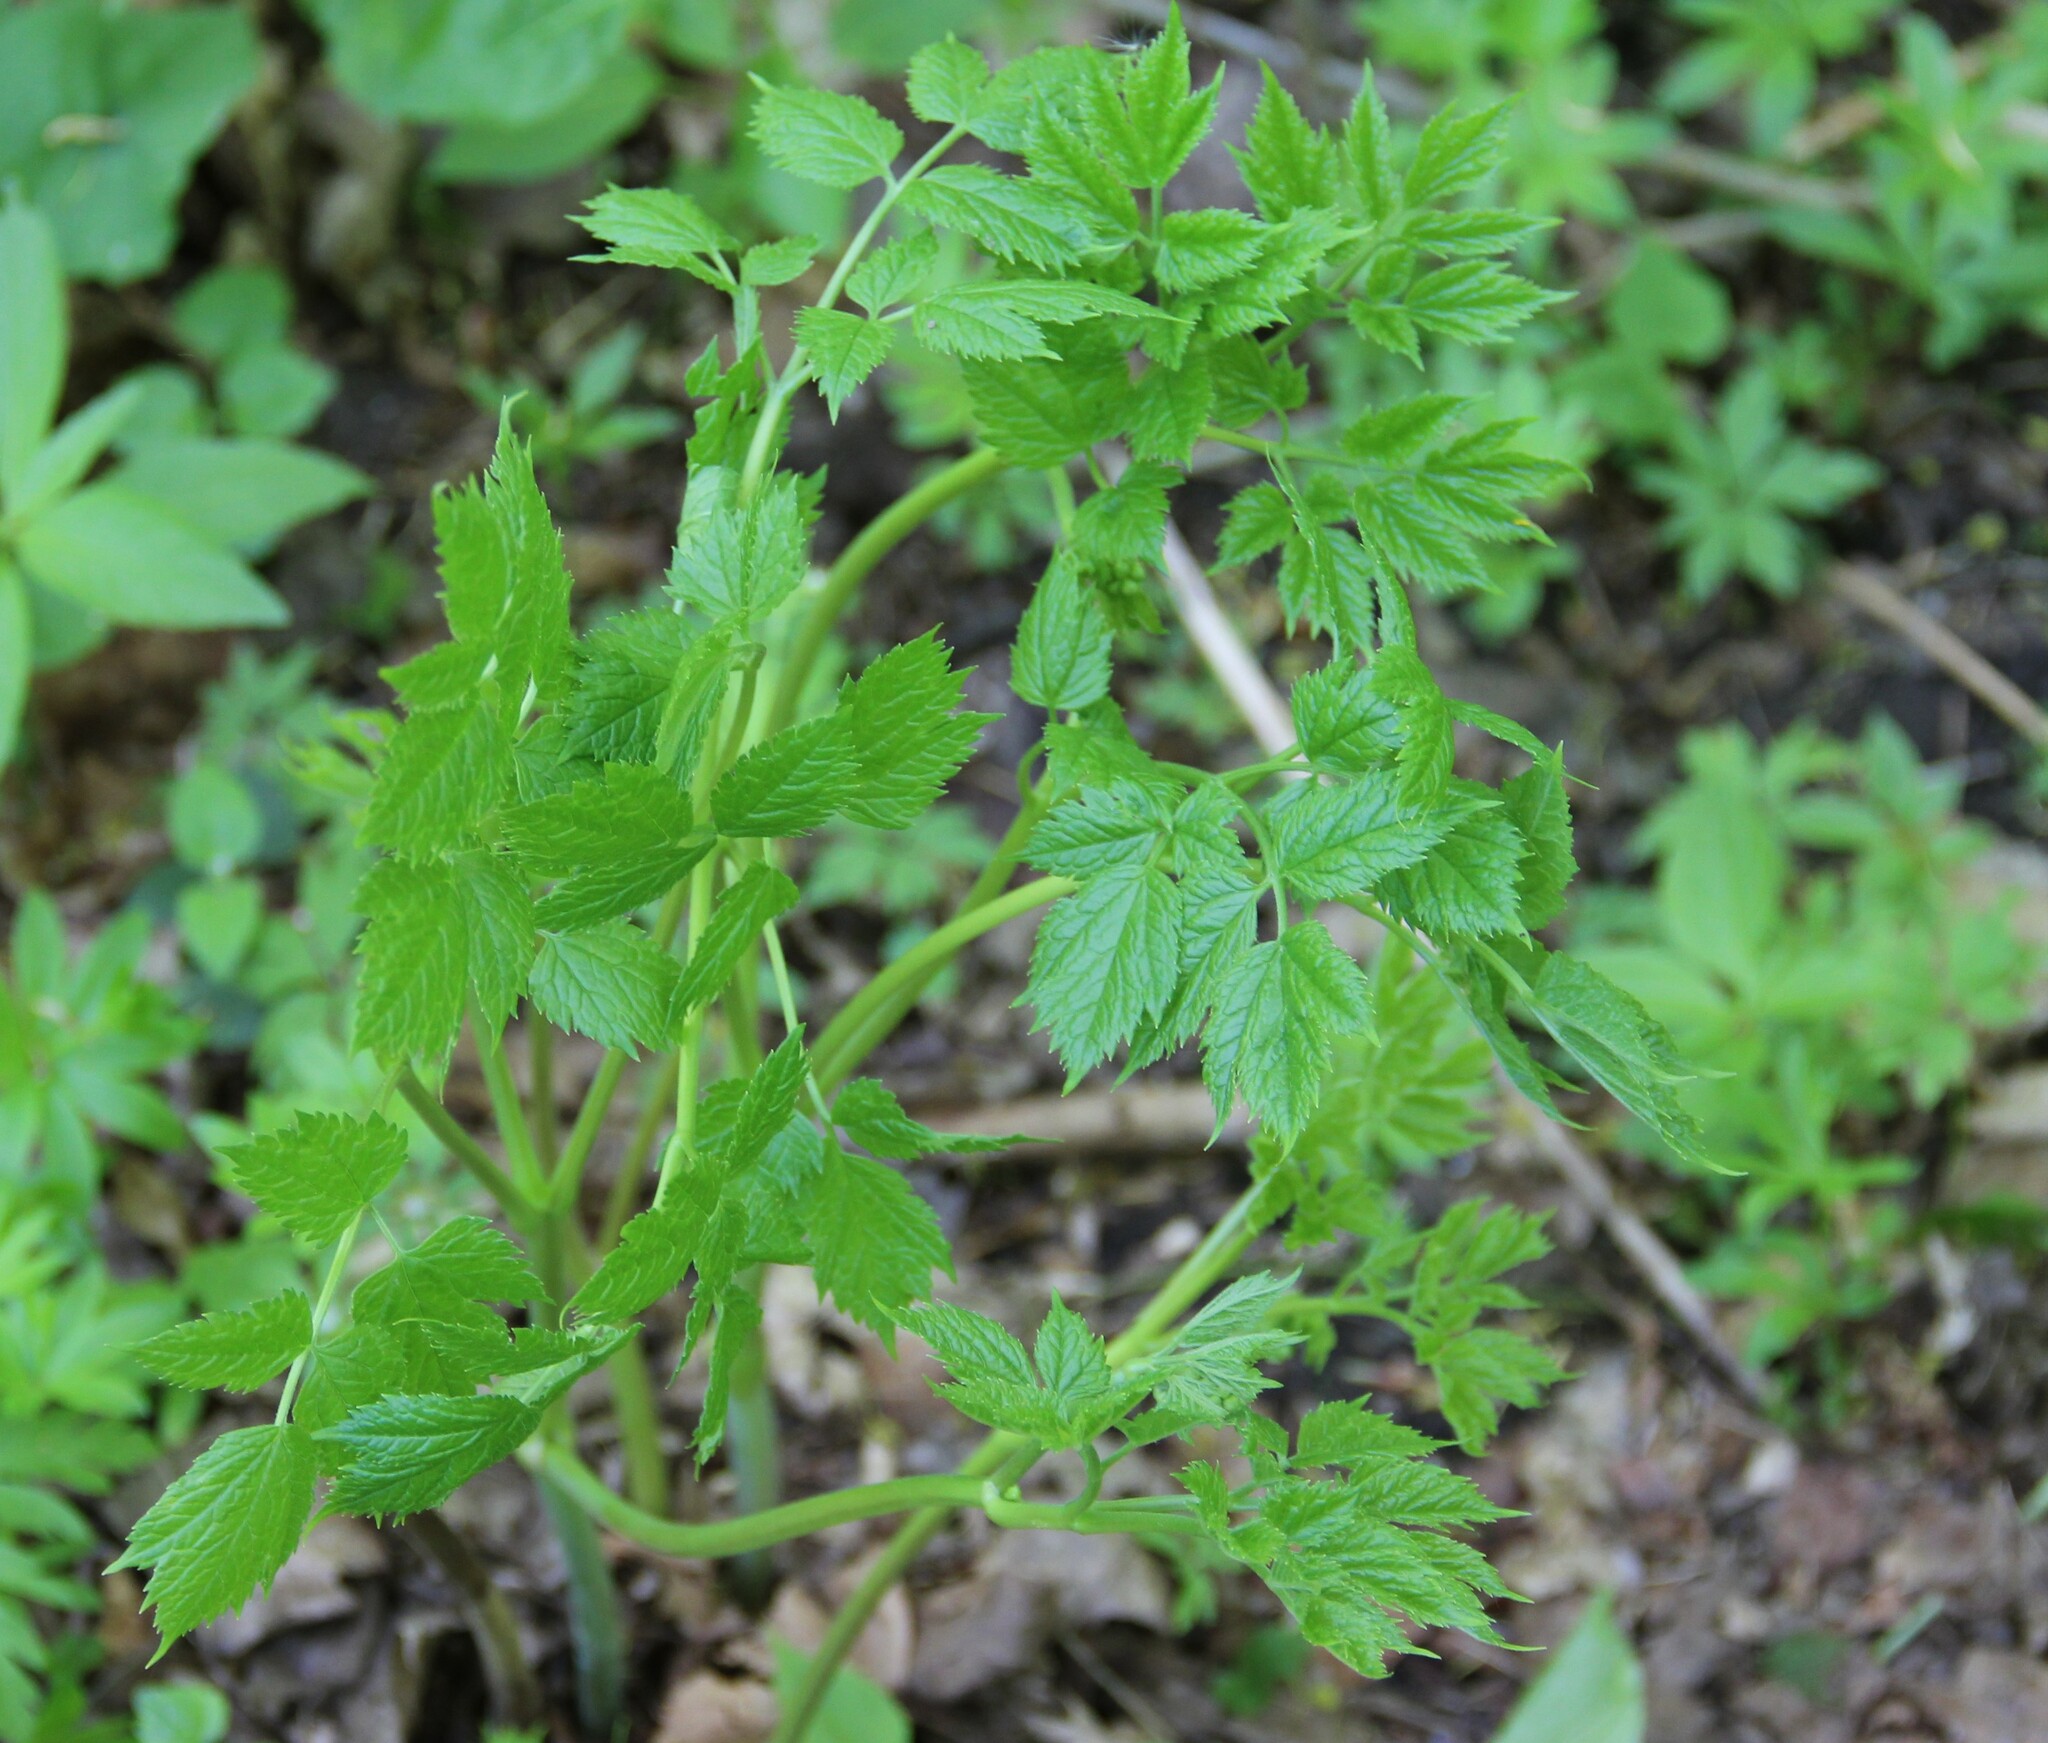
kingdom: Plantae
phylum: Tracheophyta
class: Magnoliopsida
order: Ranunculales
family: Ranunculaceae
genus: Actaea
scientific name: Actaea spicata
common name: Baneberry
